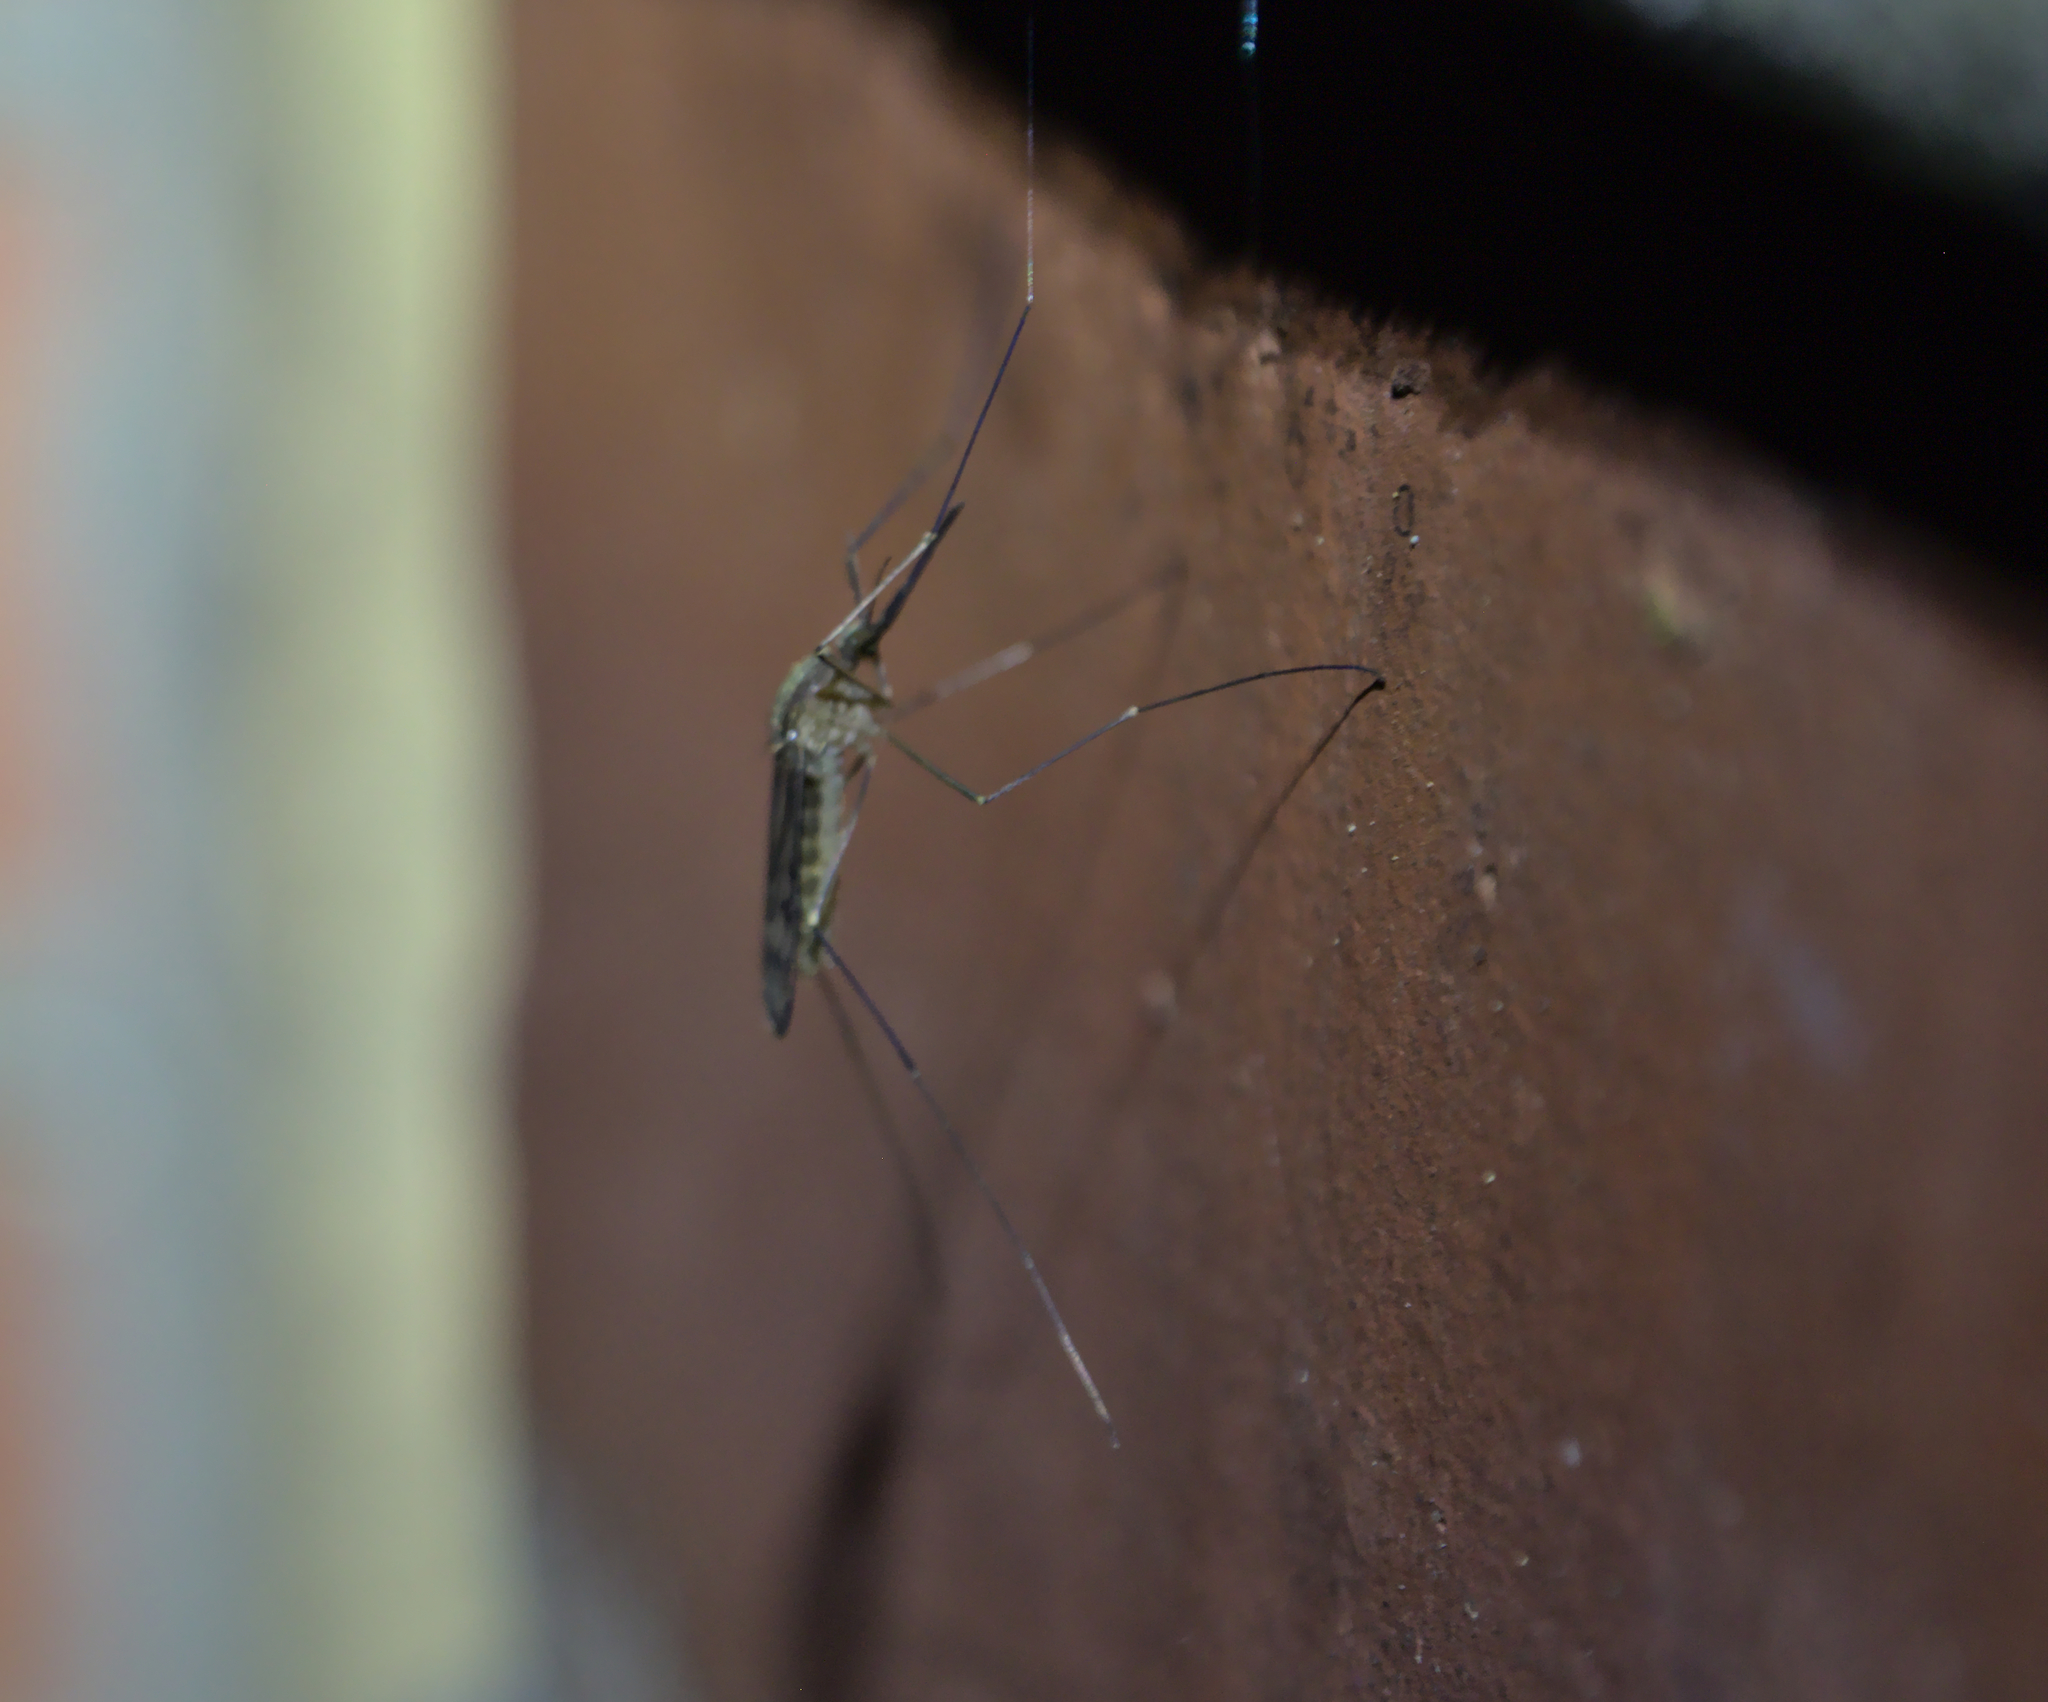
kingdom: Animalia
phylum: Arthropoda
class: Insecta
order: Diptera
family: Culicidae
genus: Anopheles
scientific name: Anopheles
